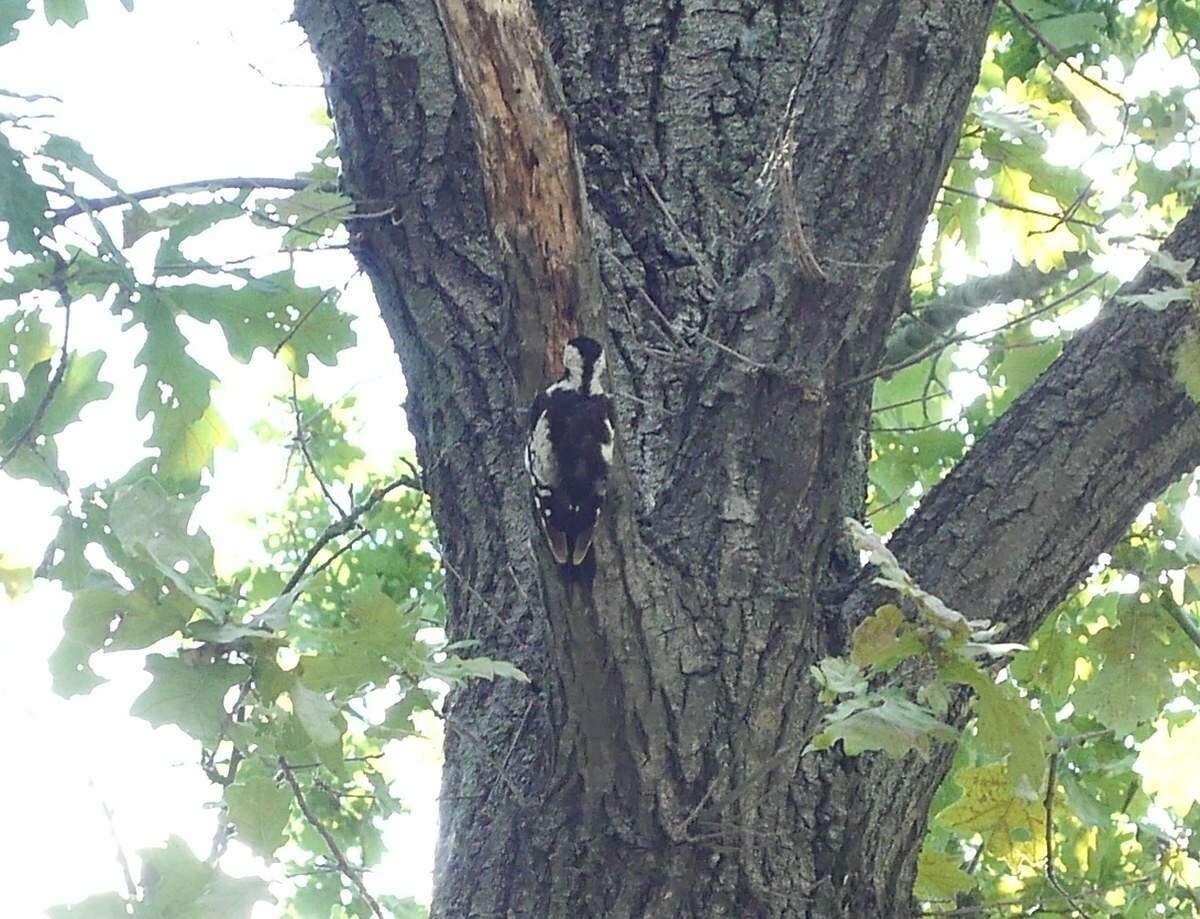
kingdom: Animalia
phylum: Chordata
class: Aves
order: Piciformes
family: Picidae
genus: Dendrocopos
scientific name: Dendrocopos syriacus
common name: Syrian woodpecker
